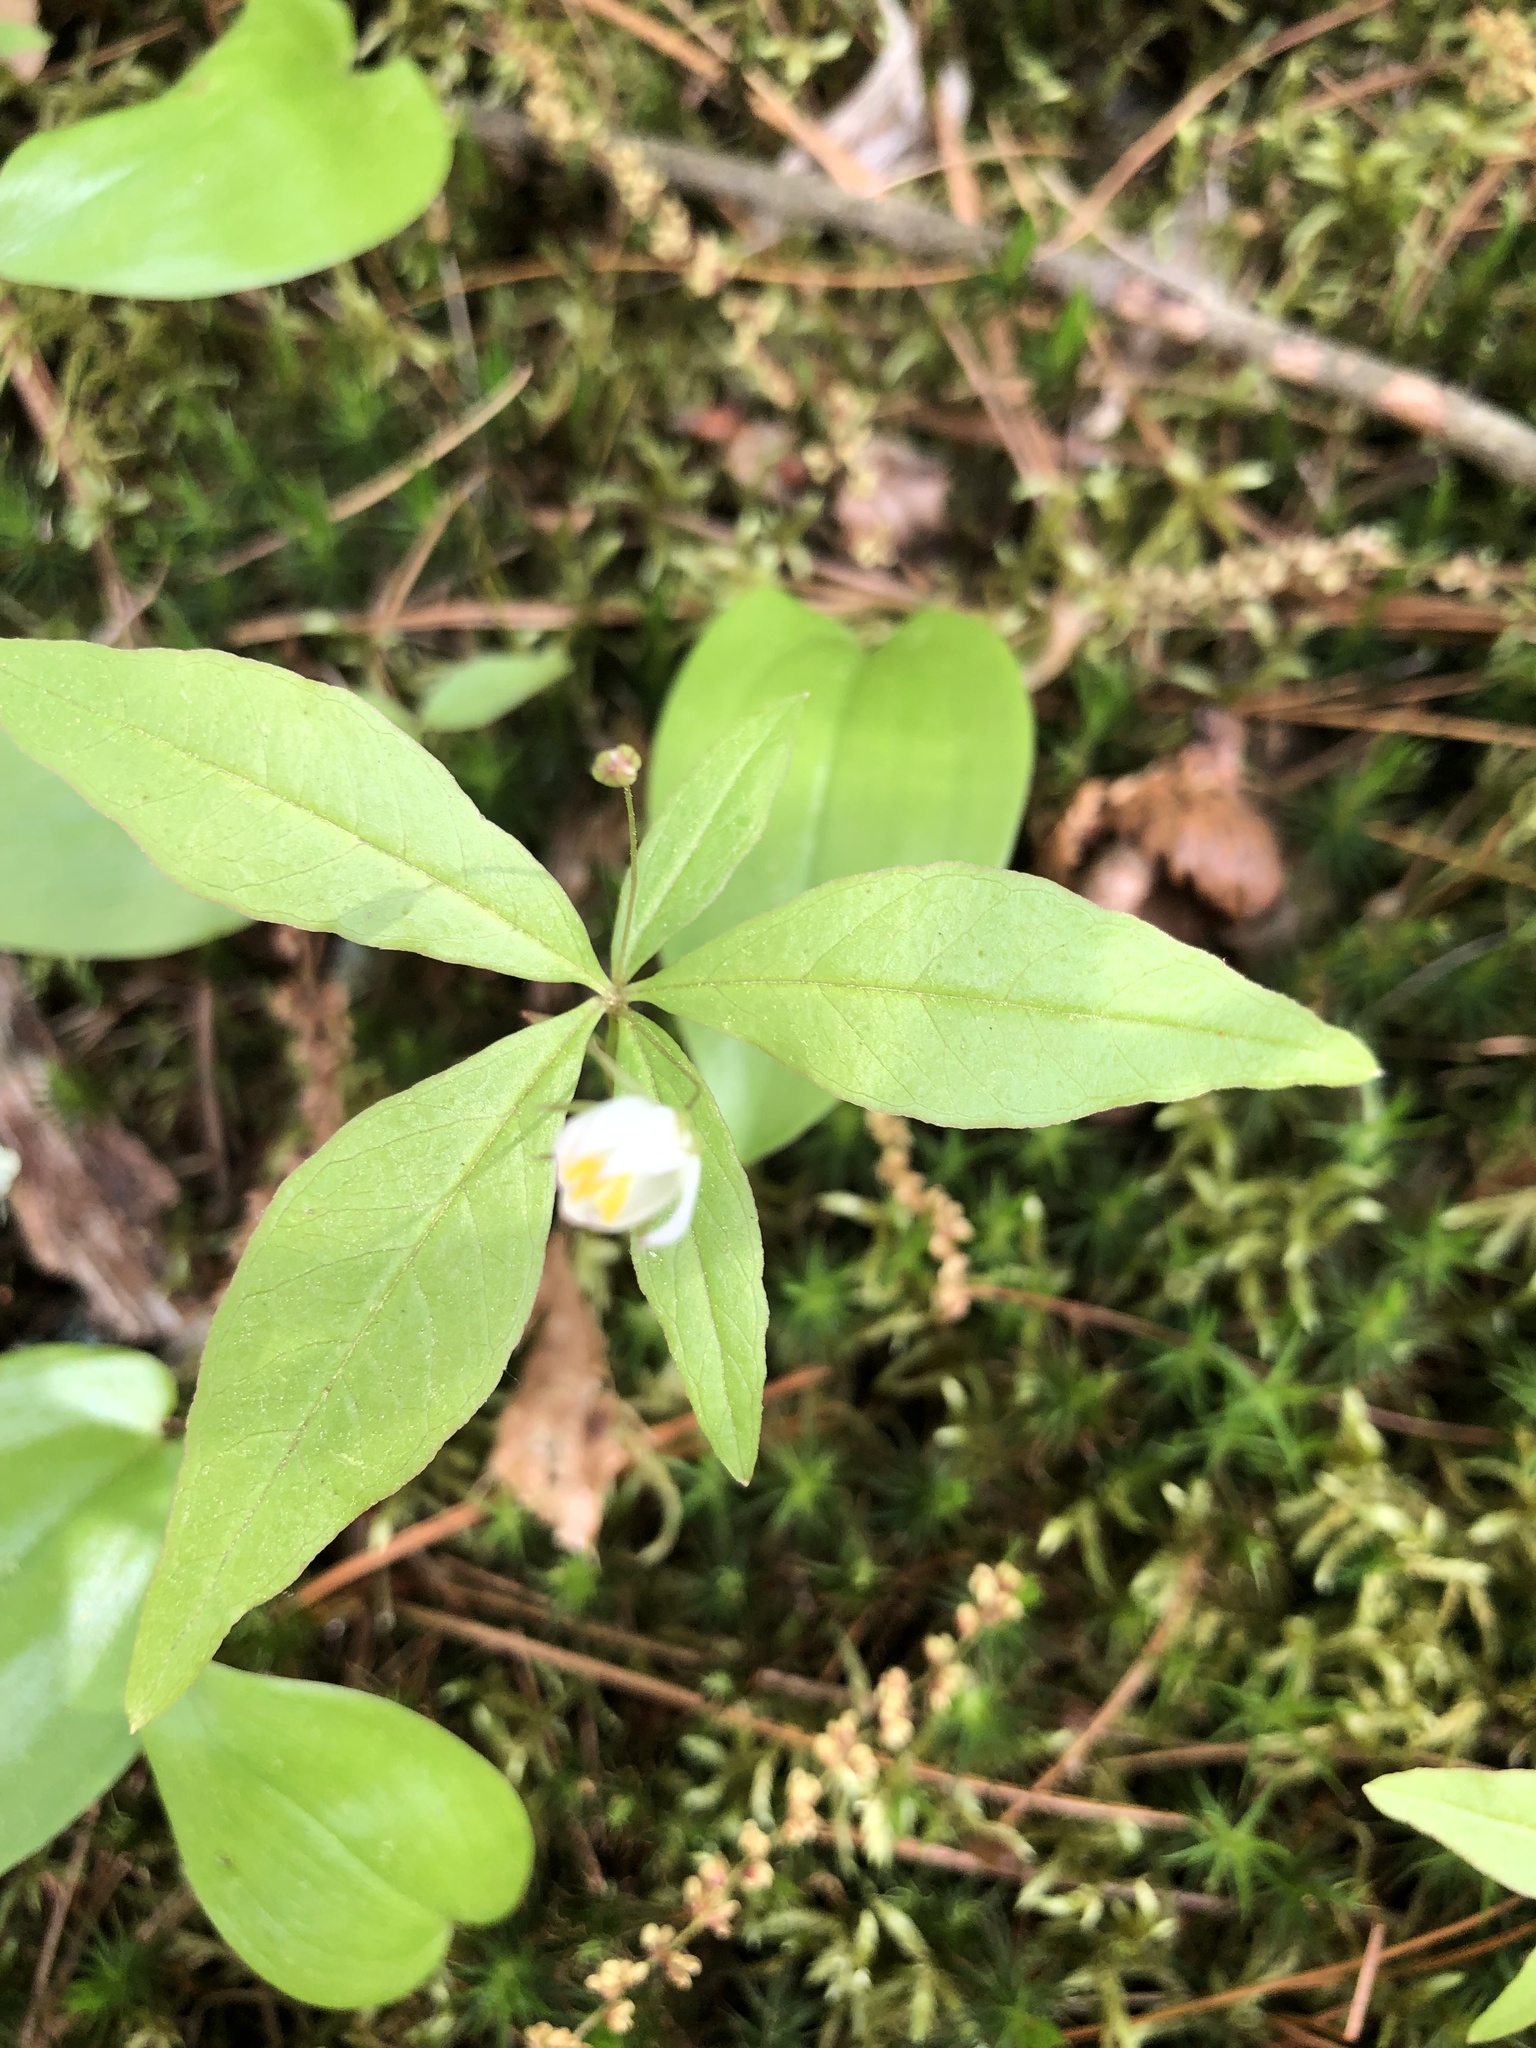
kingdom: Plantae
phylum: Tracheophyta
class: Magnoliopsida
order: Ericales
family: Primulaceae
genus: Lysimachia
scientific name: Lysimachia borealis
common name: American starflower
